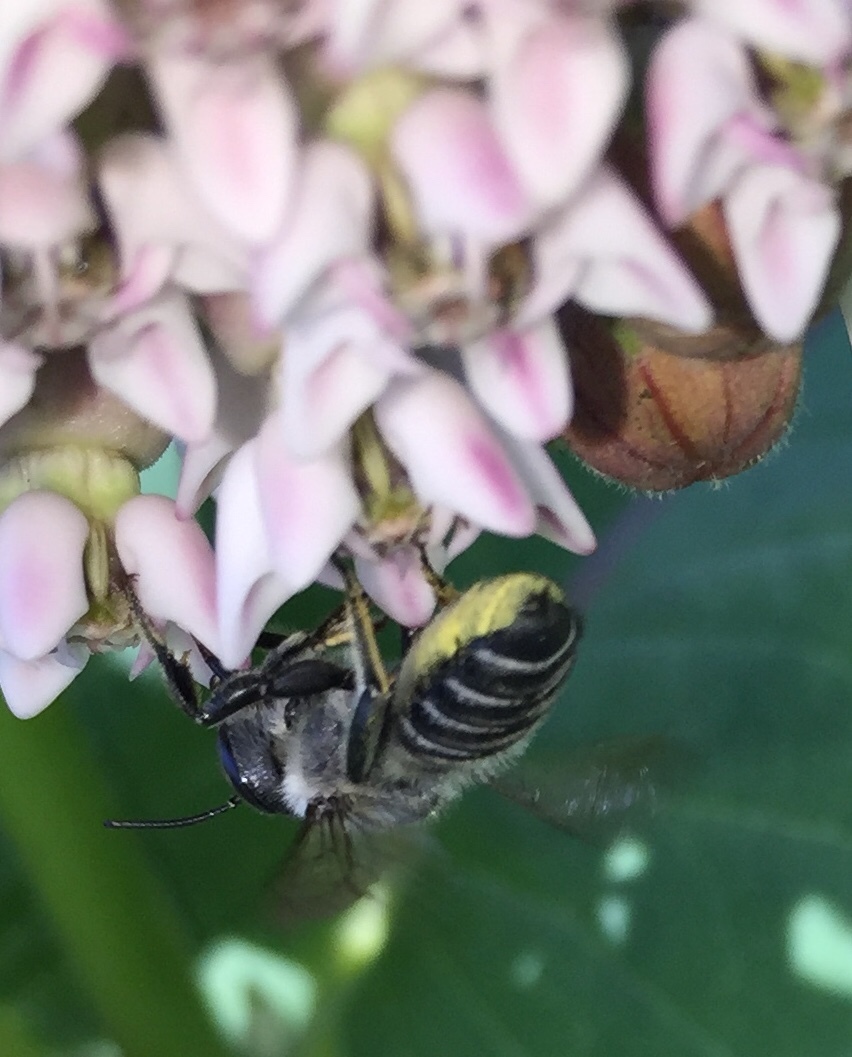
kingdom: Animalia
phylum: Arthropoda
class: Insecta
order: Hymenoptera
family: Megachilidae
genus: Megachile
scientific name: Megachile
